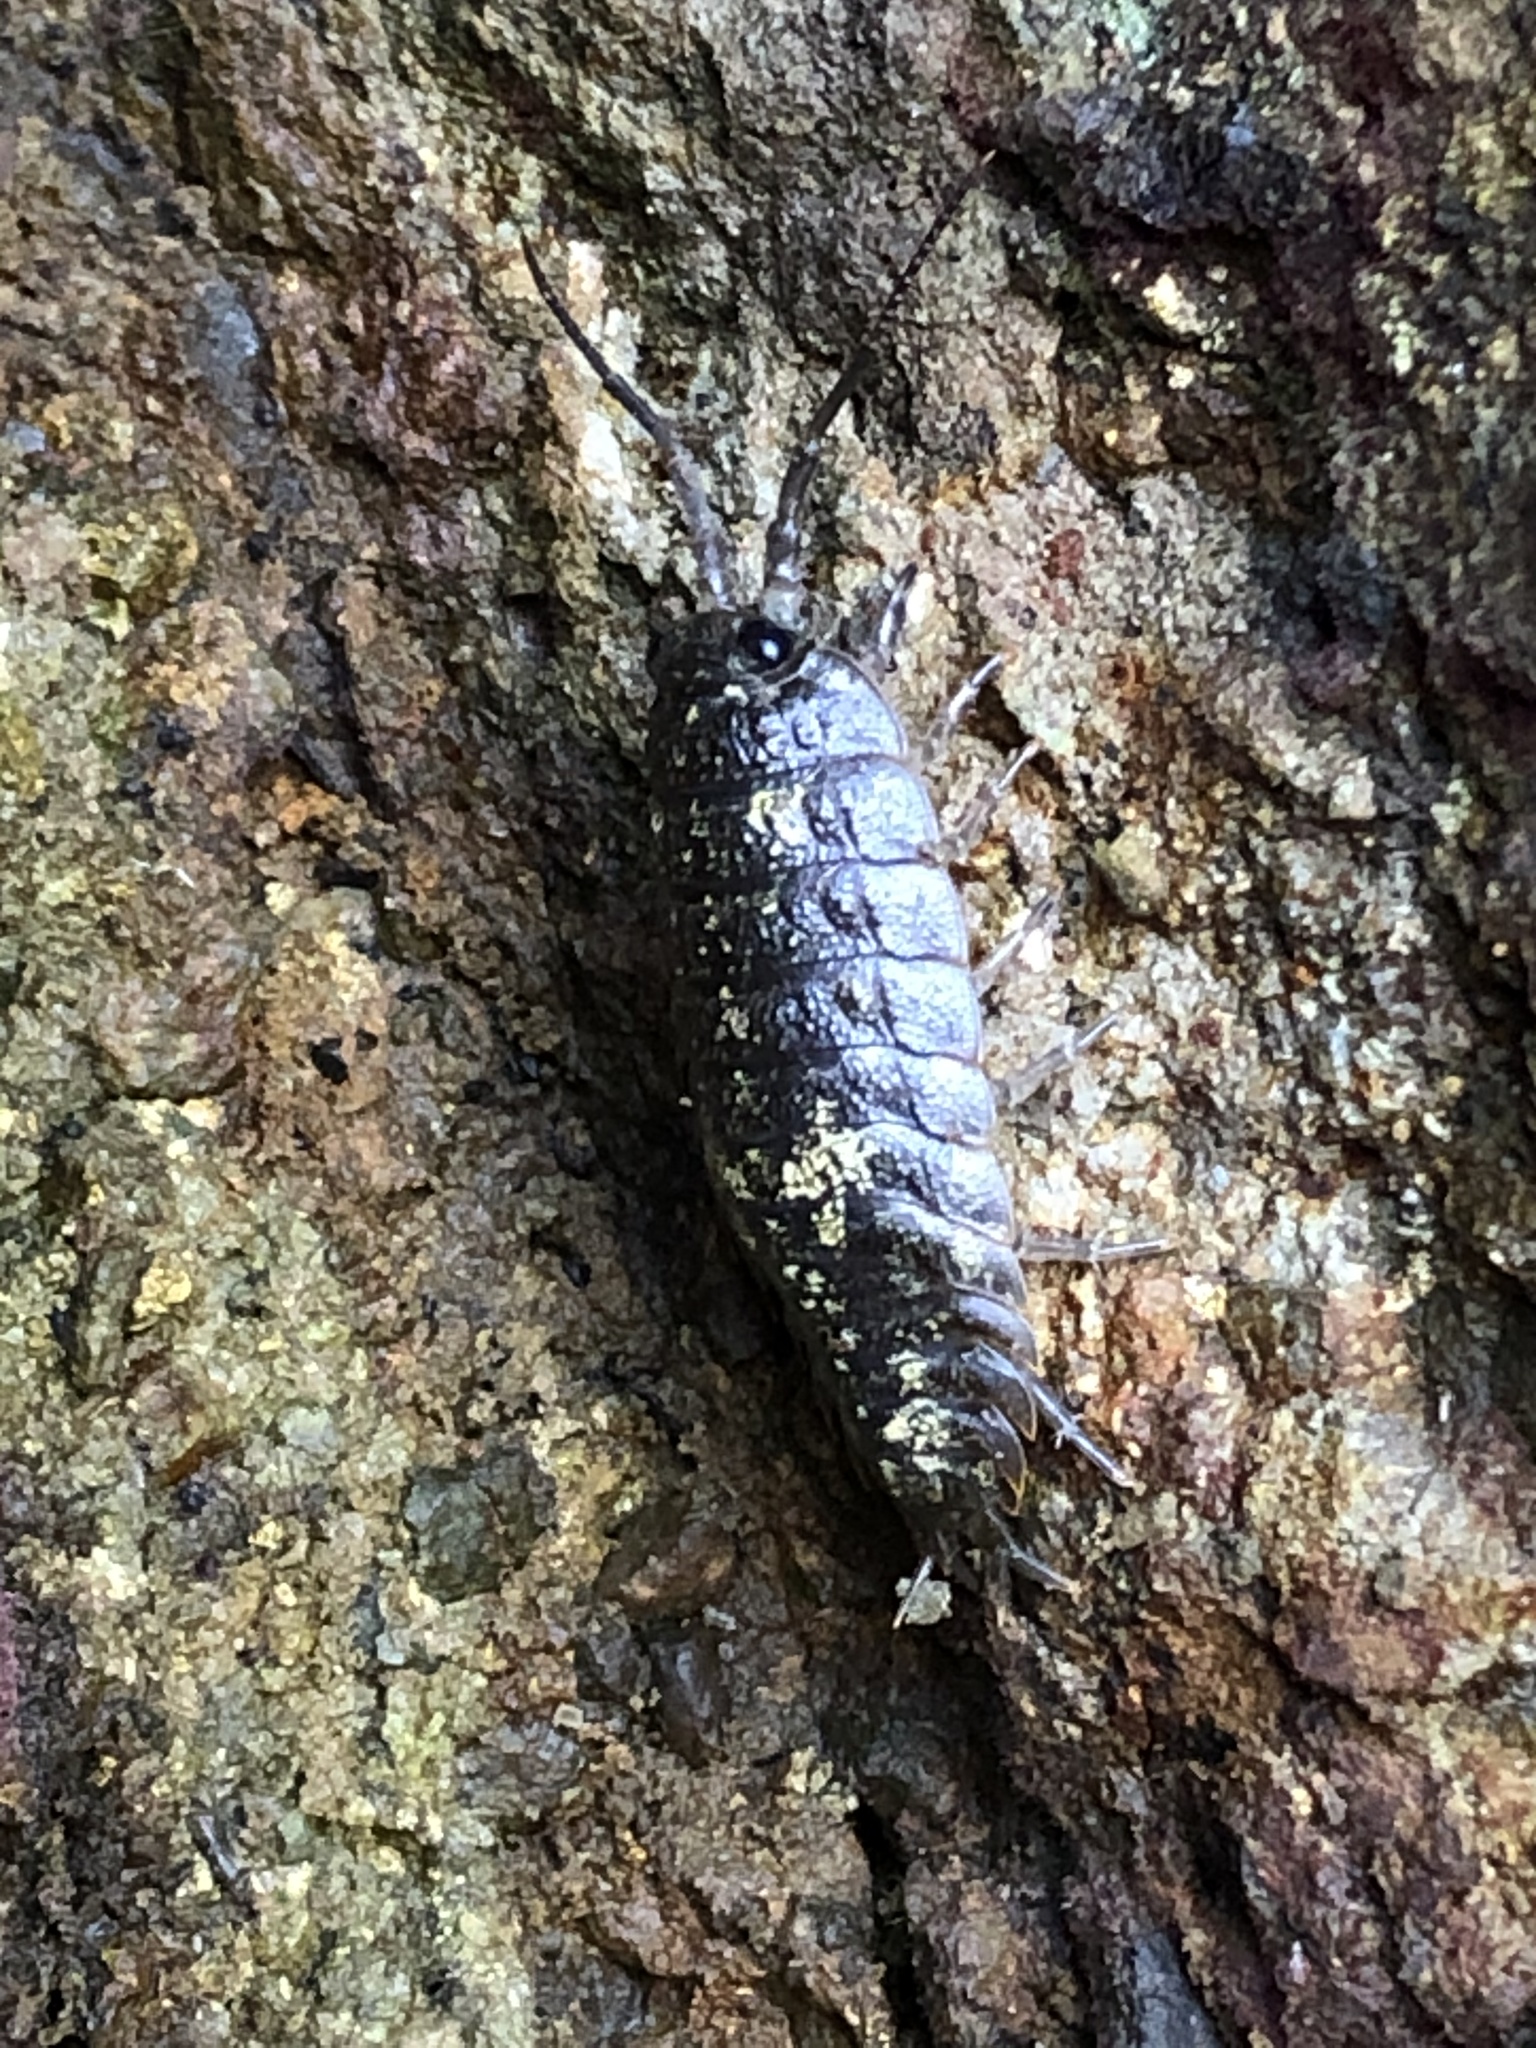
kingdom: Animalia
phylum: Arthropoda
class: Malacostraca
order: Isopoda
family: Ligiidae
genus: Ligia
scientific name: Ligia pallasii
